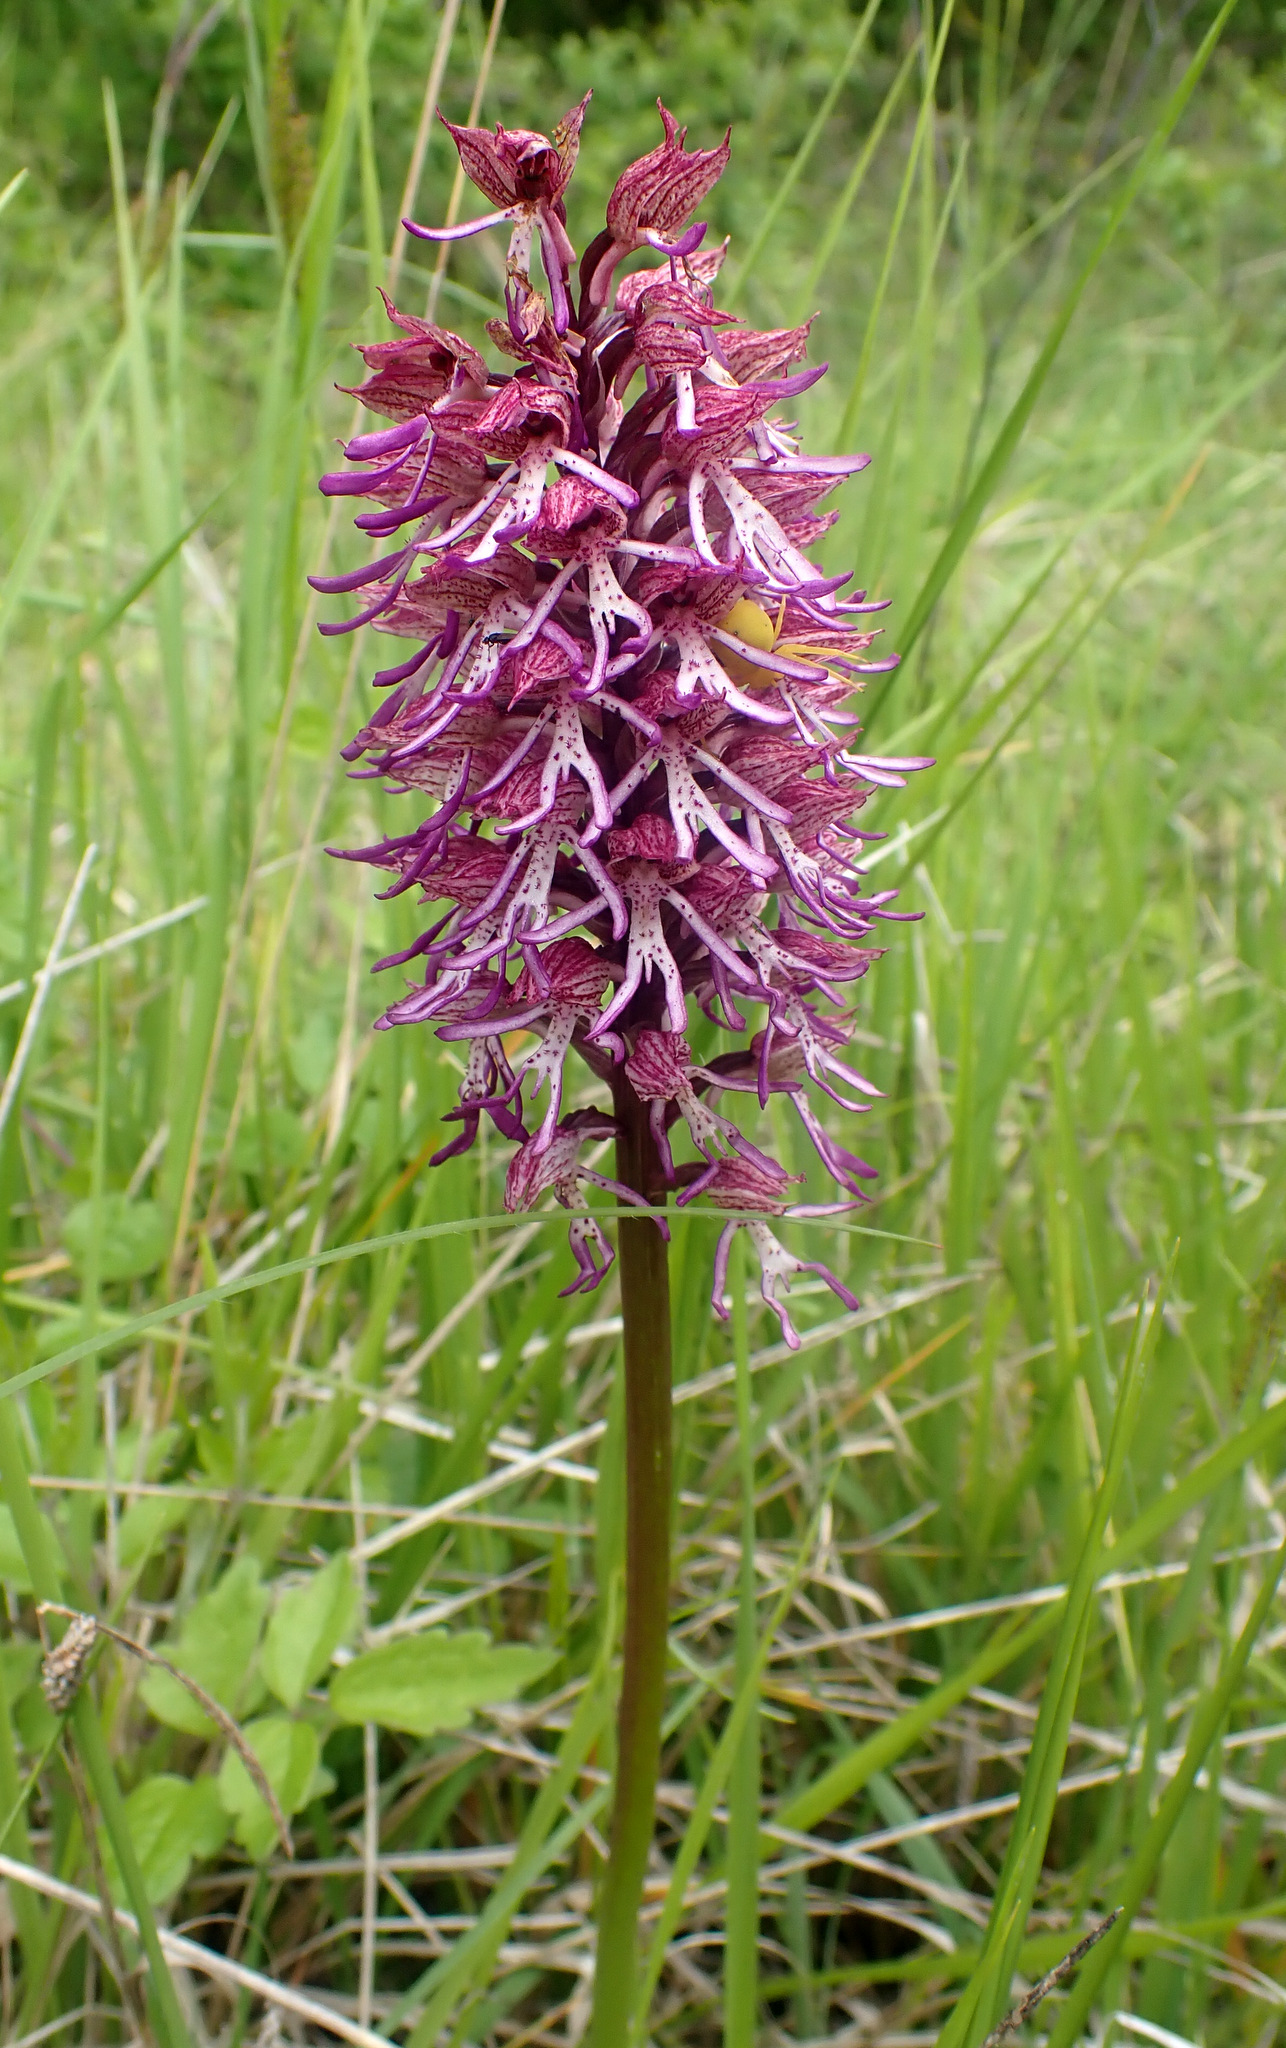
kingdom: Plantae
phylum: Tracheophyta
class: Liliopsida
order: Asparagales
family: Orchidaceae
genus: Orchis
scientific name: Orchis angusticruris
